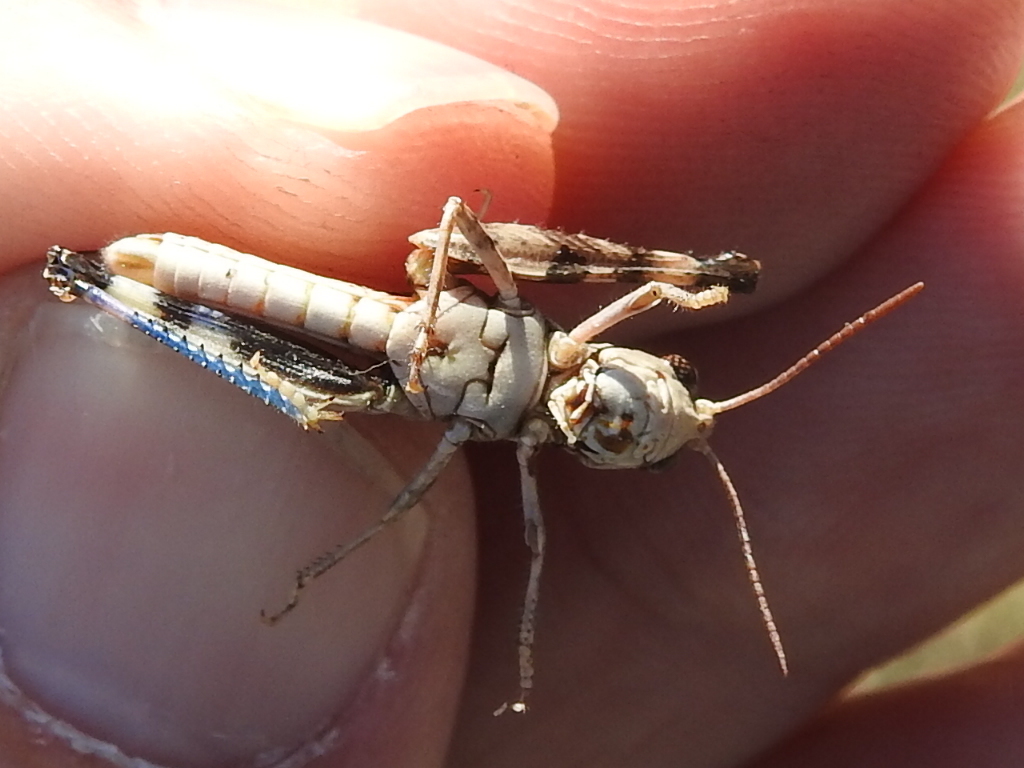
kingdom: Animalia
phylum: Arthropoda
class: Insecta
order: Orthoptera
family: Acrididae
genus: Encoptolophus
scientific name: Encoptolophus costalis
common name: Dusky grasshopper
